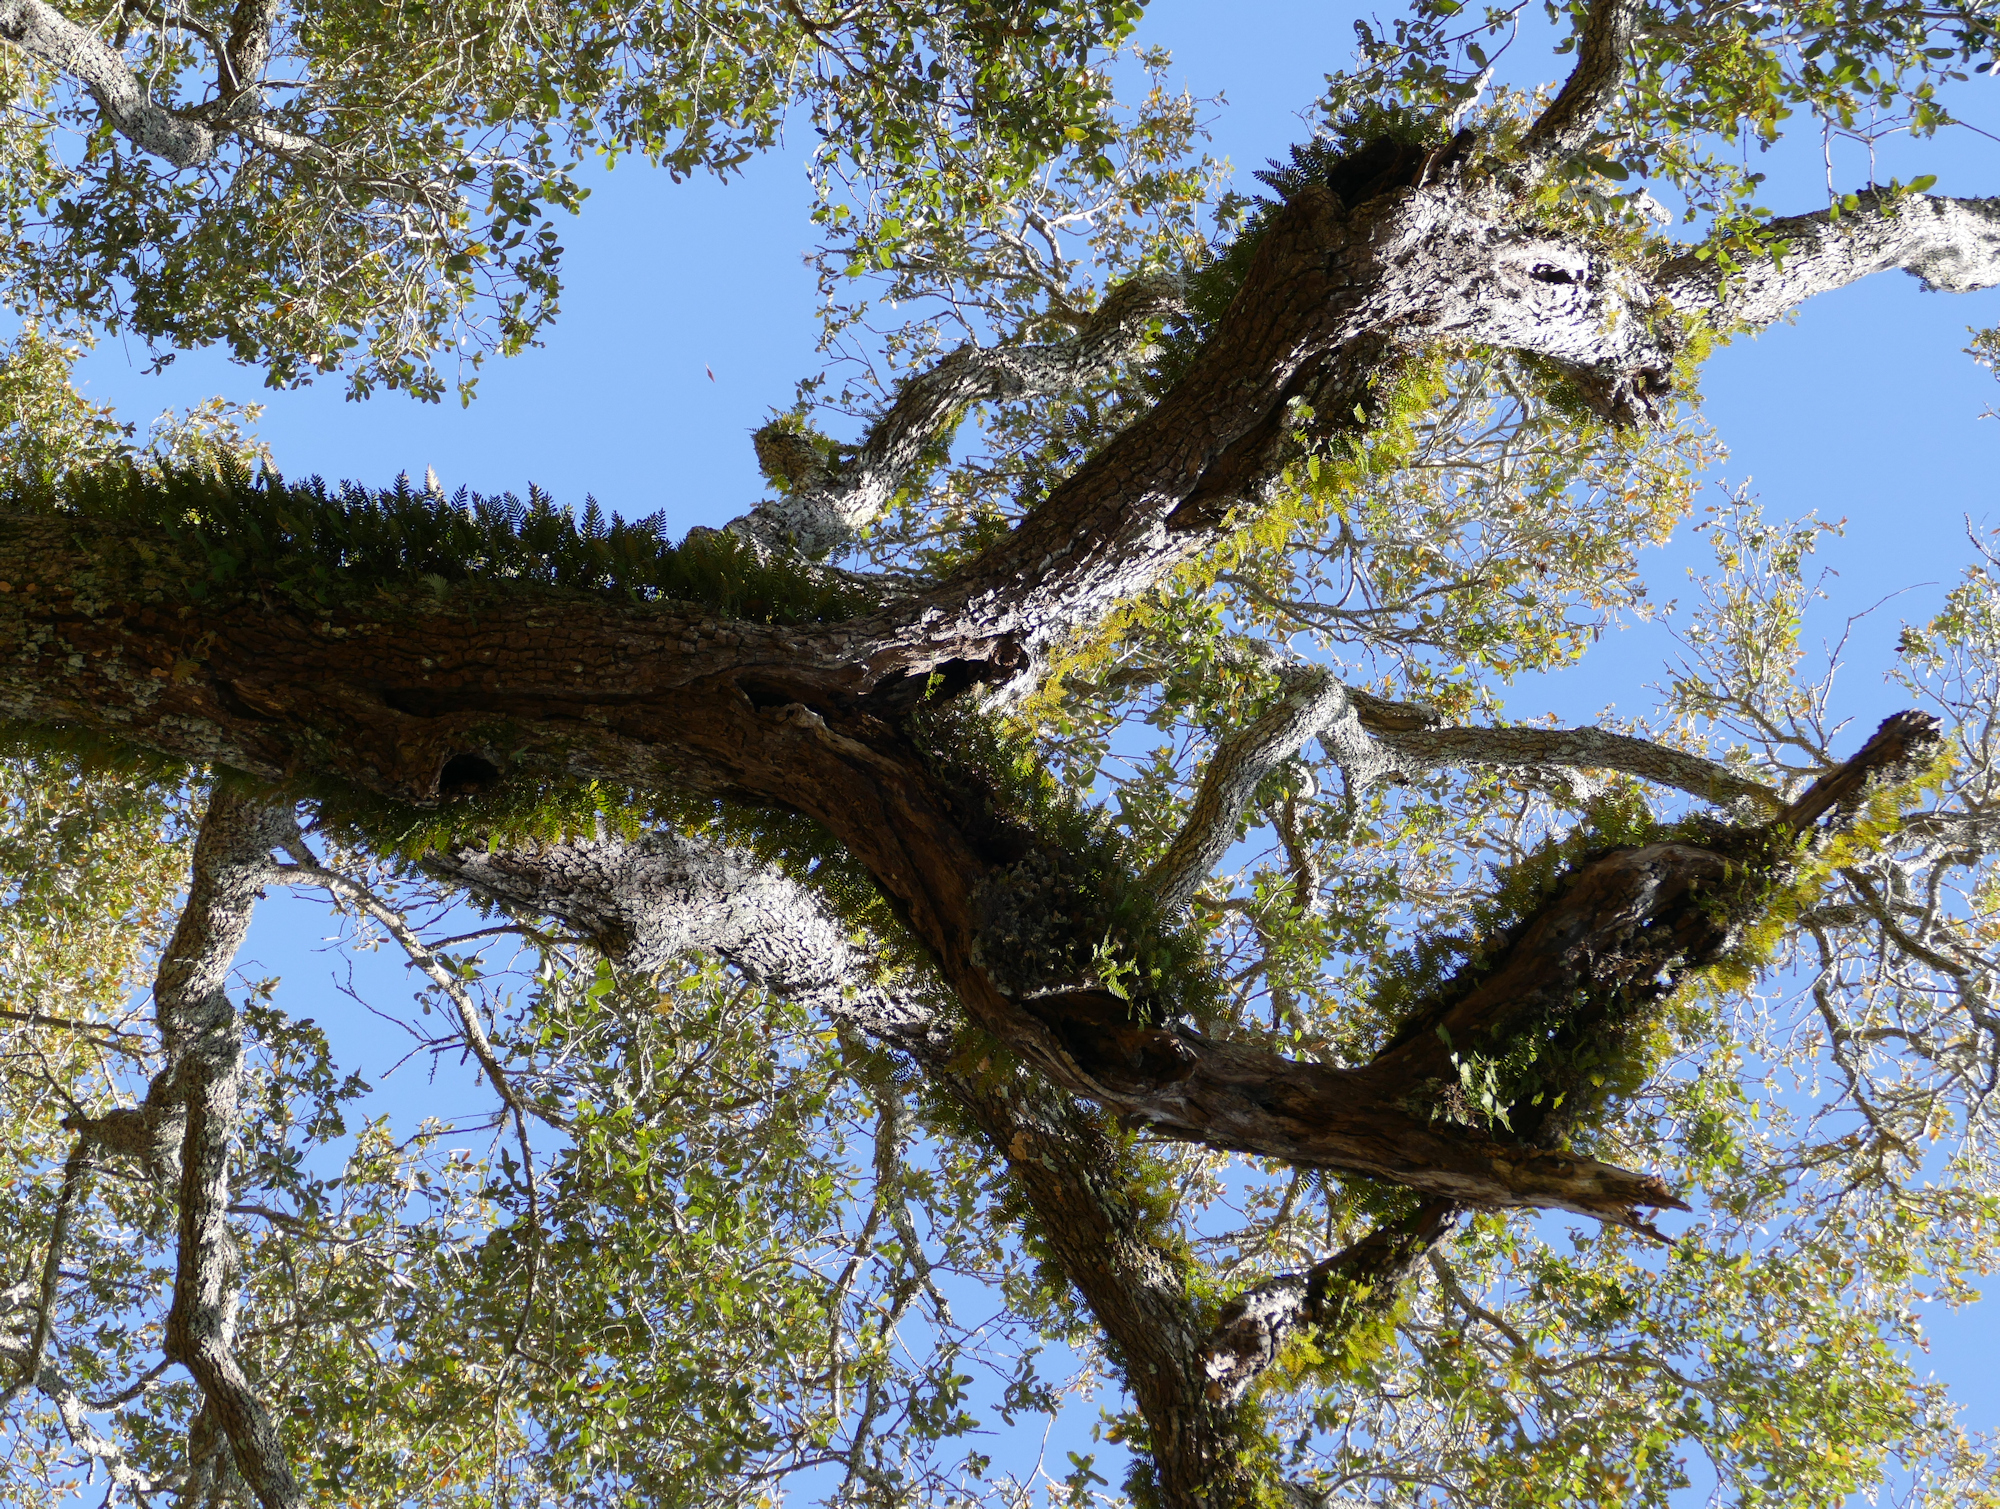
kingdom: Plantae
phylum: Tracheophyta
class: Polypodiopsida
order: Polypodiales
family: Polypodiaceae
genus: Pleopeltis
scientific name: Pleopeltis michauxiana
